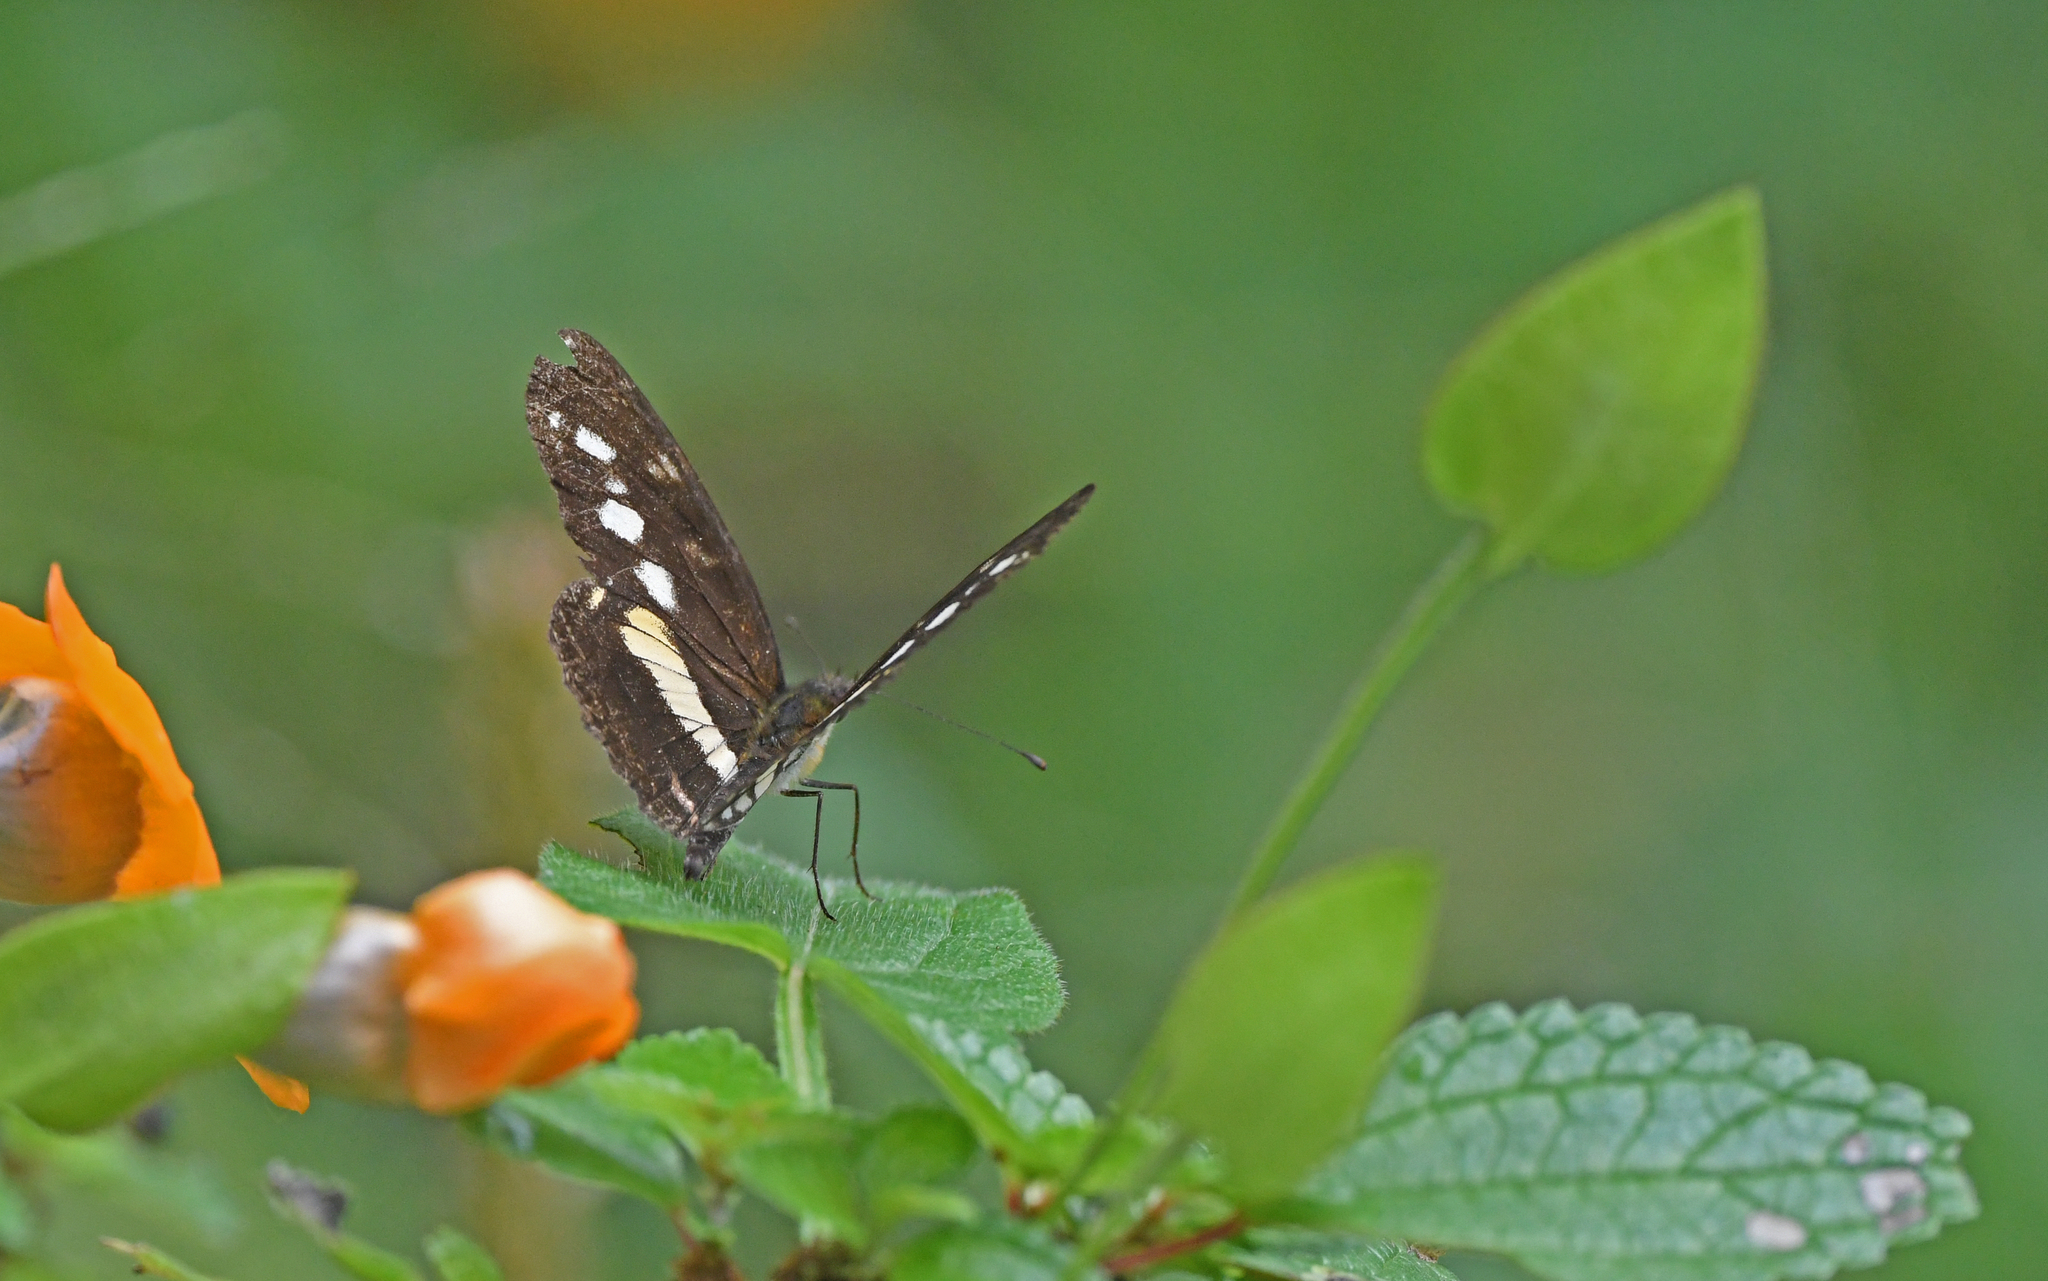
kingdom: Animalia
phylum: Arthropoda
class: Insecta
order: Lepidoptera
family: Nymphalidae
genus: Eresia
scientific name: Eresia polina
